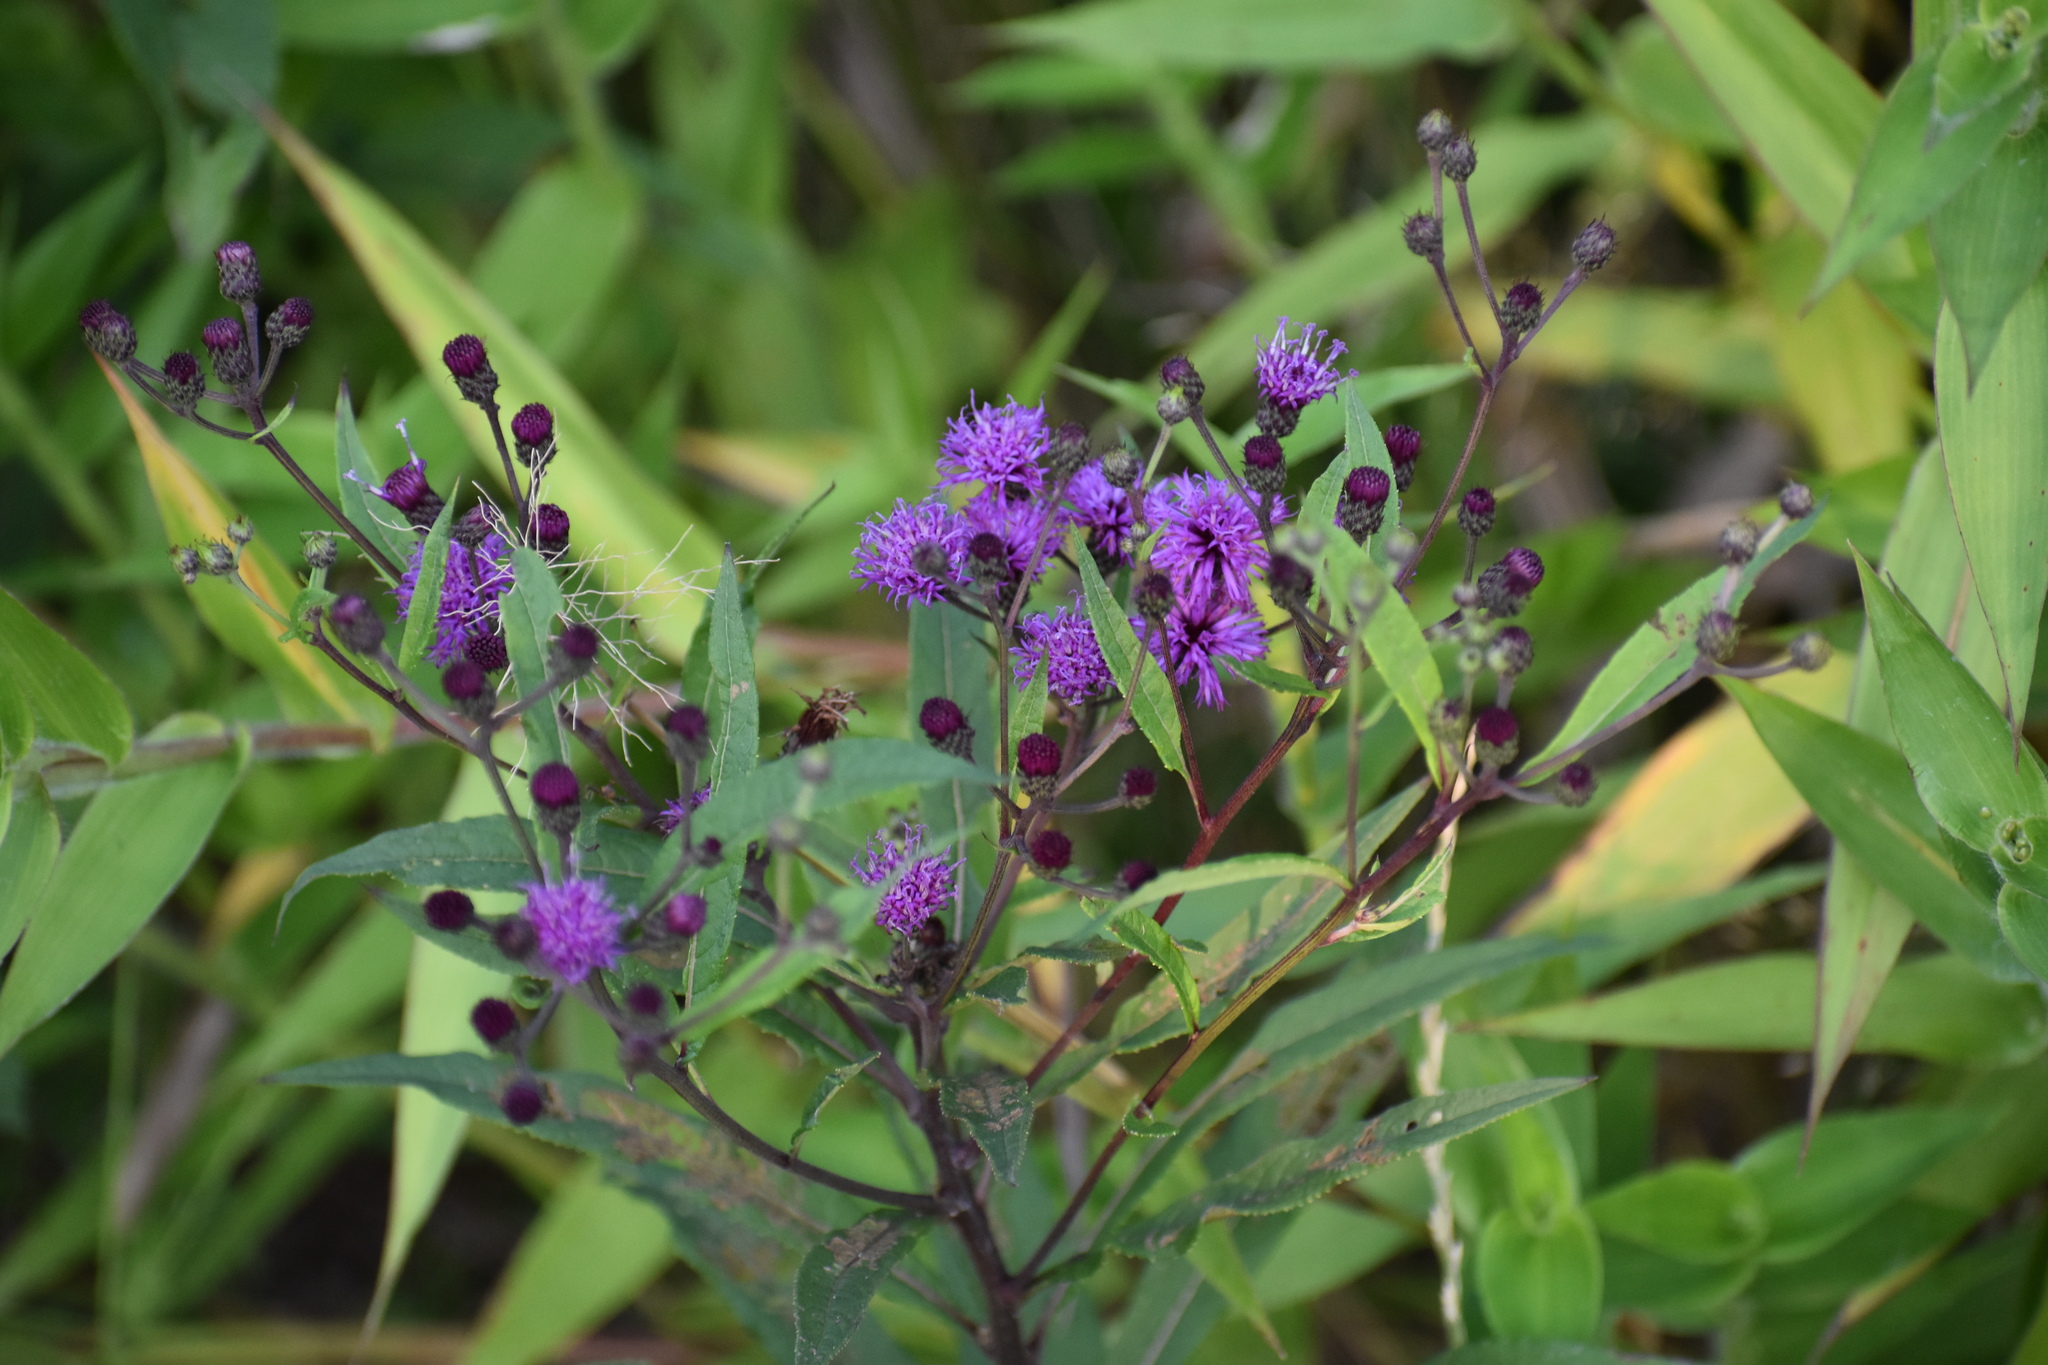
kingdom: Plantae
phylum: Tracheophyta
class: Magnoliopsida
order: Asterales
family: Asteraceae
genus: Vernonia
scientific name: Vernonia noveboracensis
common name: New york ironweed
